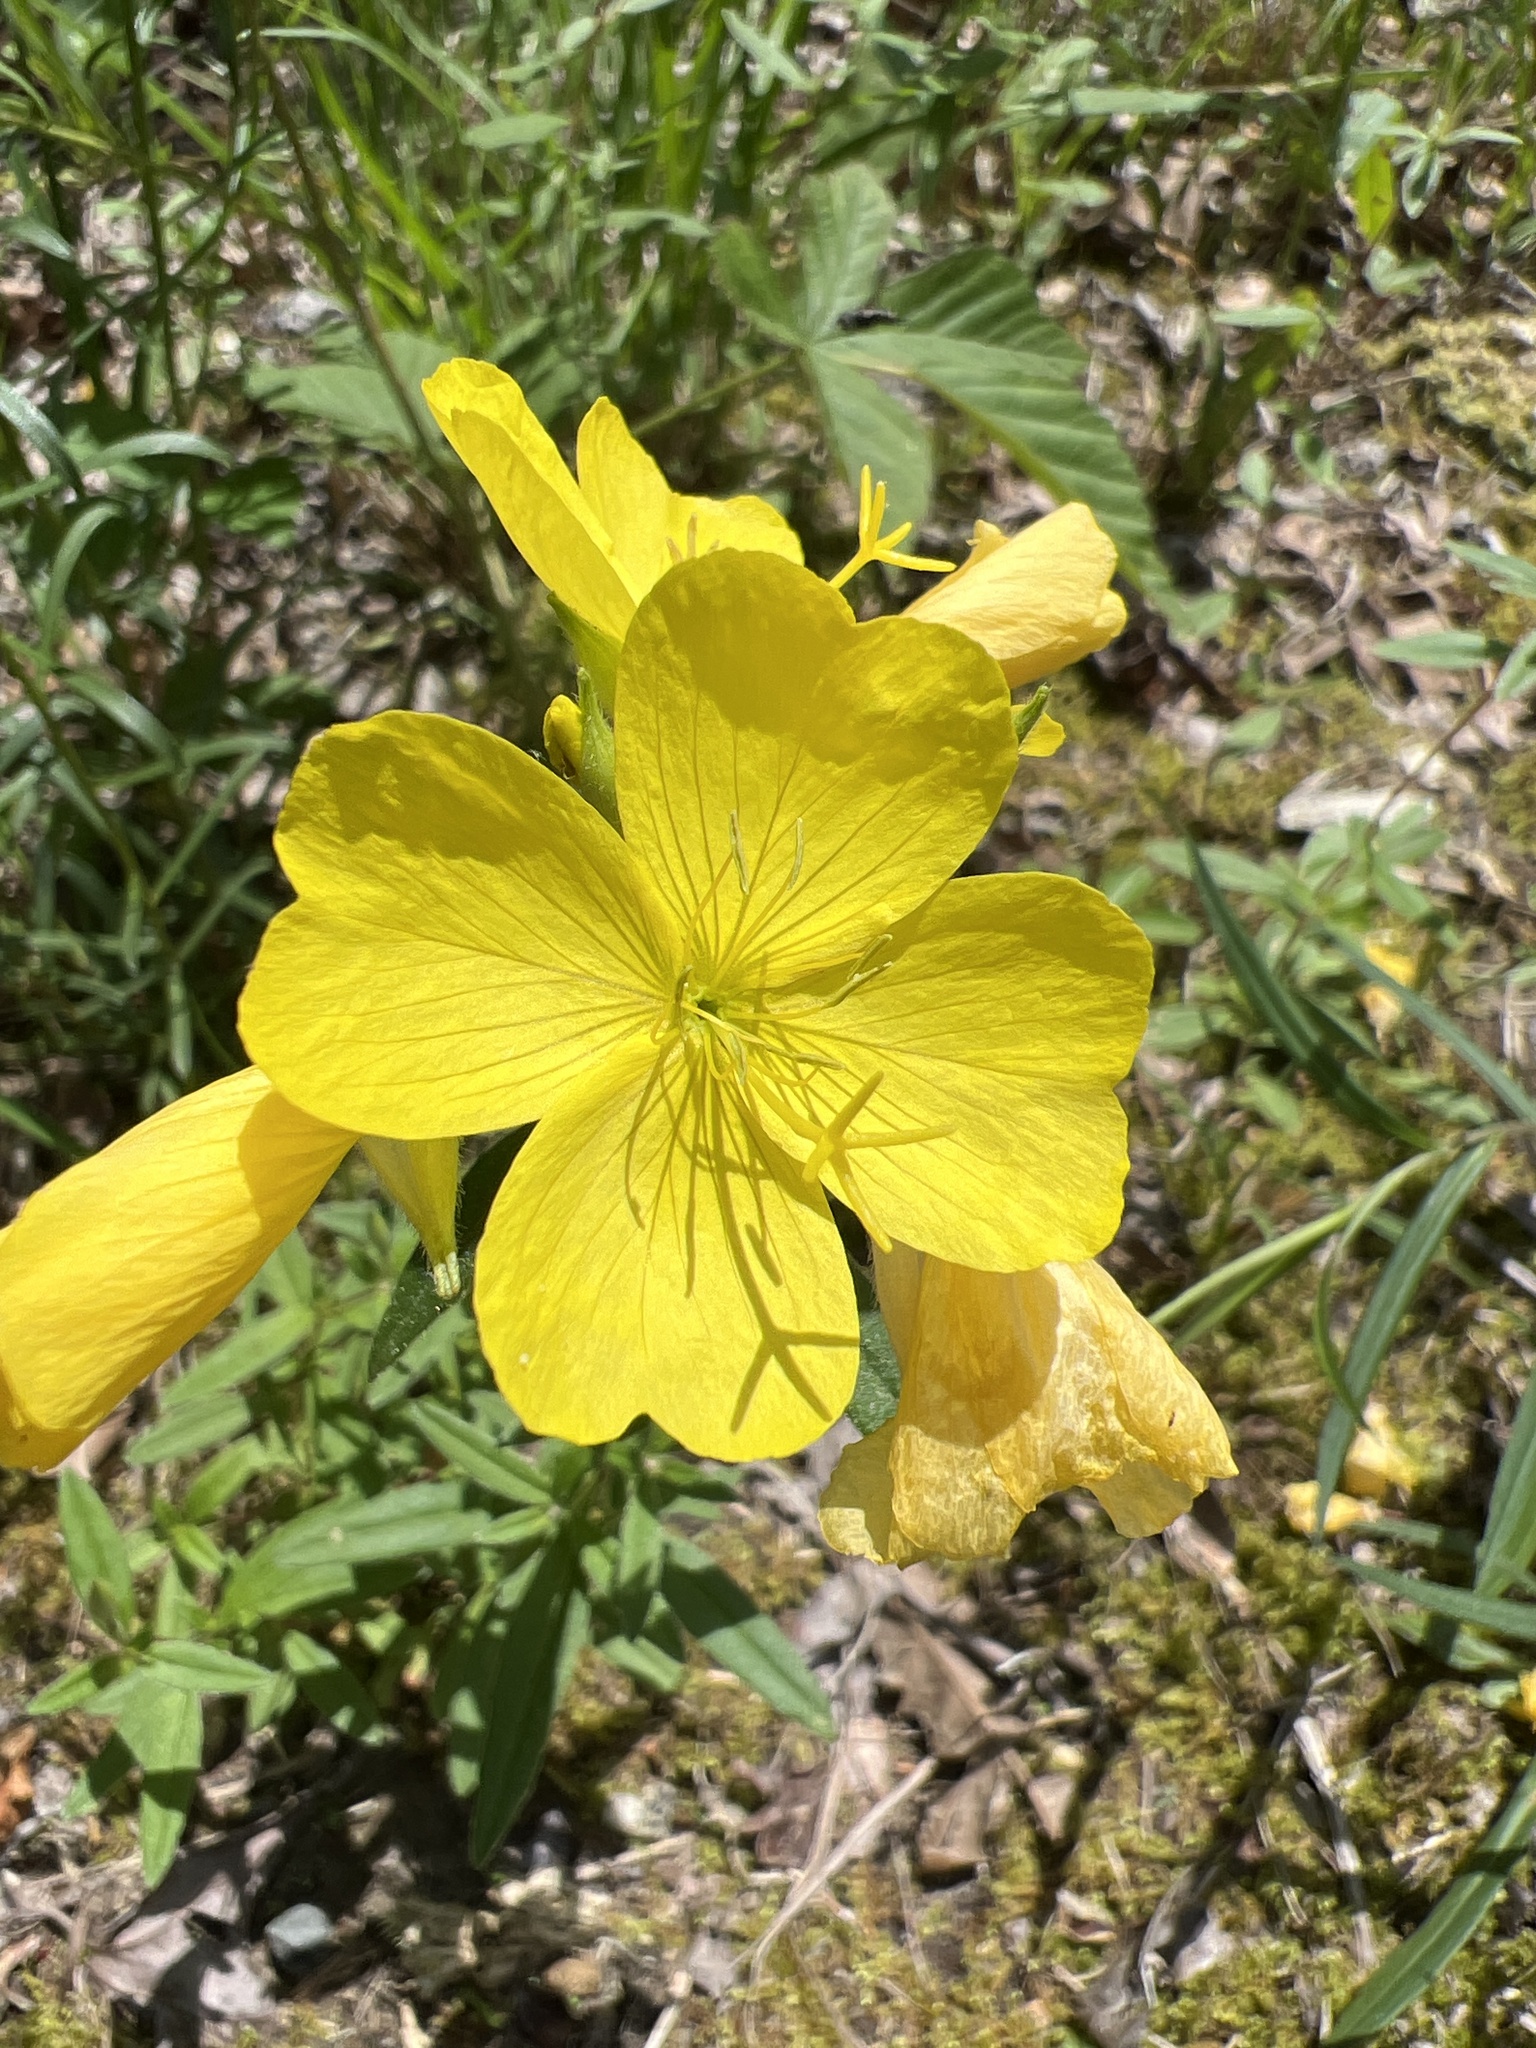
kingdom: Plantae
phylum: Tracheophyta
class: Magnoliopsida
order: Myrtales
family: Onagraceae
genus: Oenothera
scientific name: Oenothera fruticosa
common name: Southern sundrops
